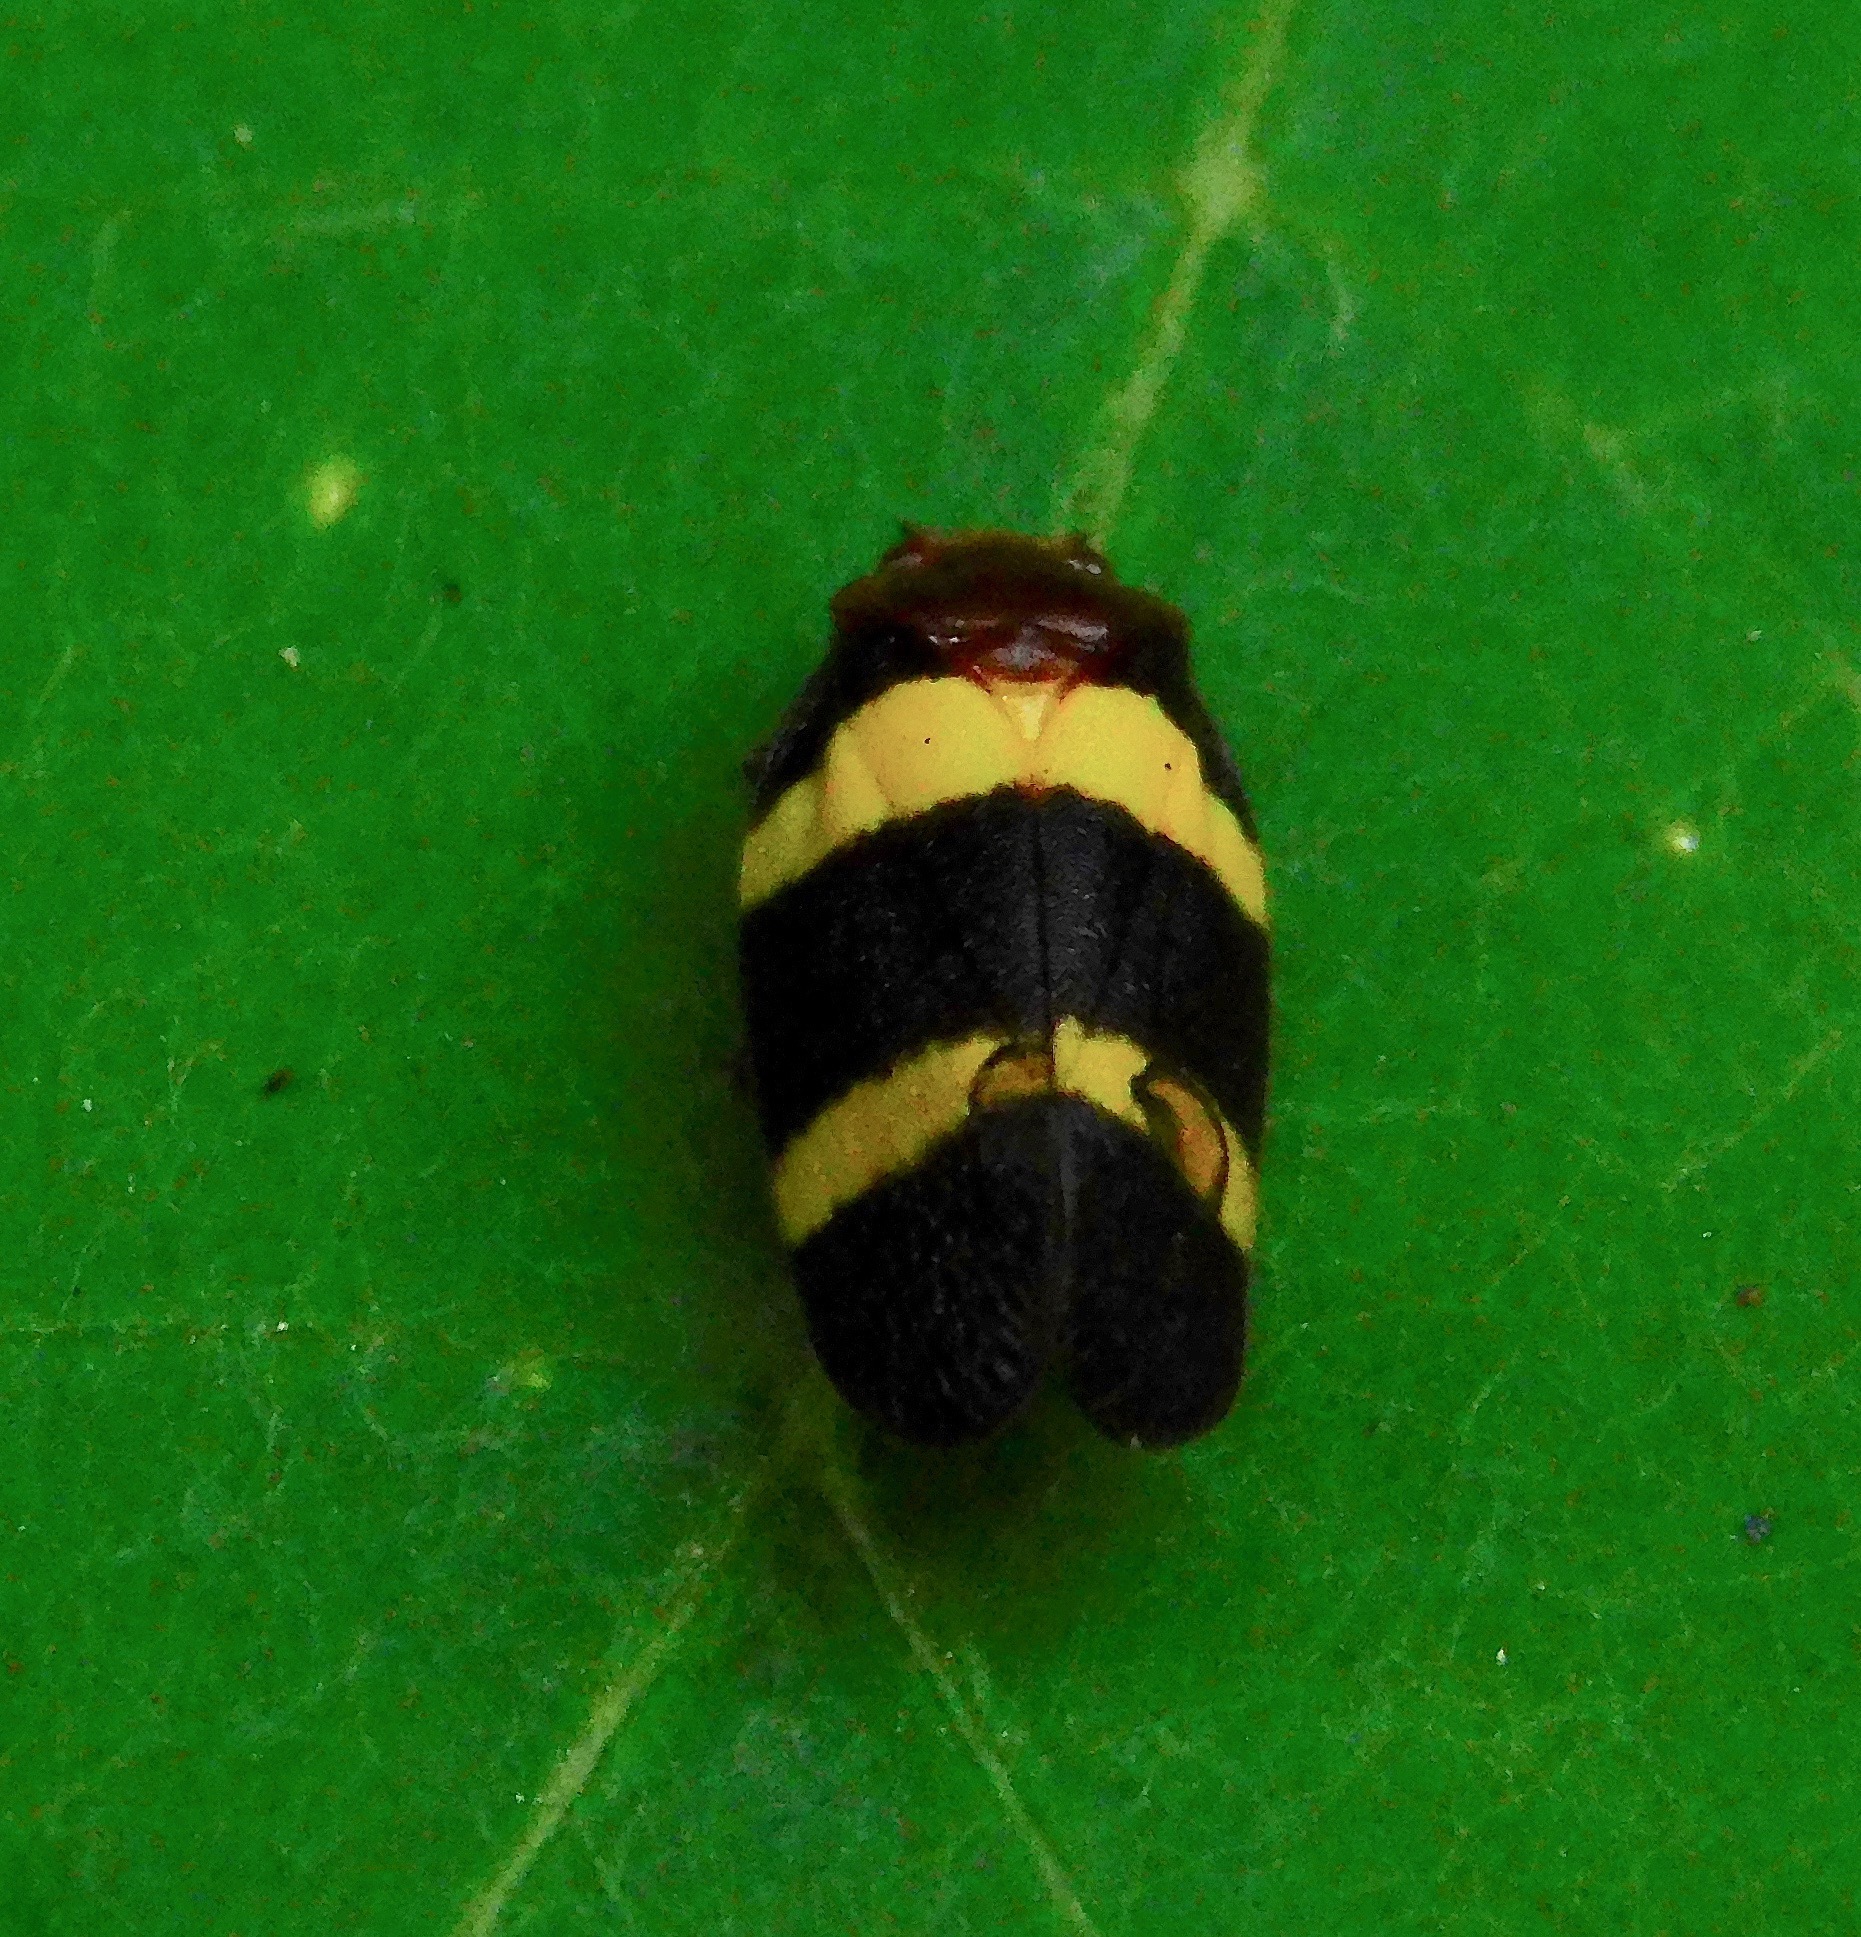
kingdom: Animalia
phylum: Arthropoda
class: Insecta
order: Hemiptera
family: Cercopidae
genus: Sphenorhina
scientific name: Sphenorhina rubra
